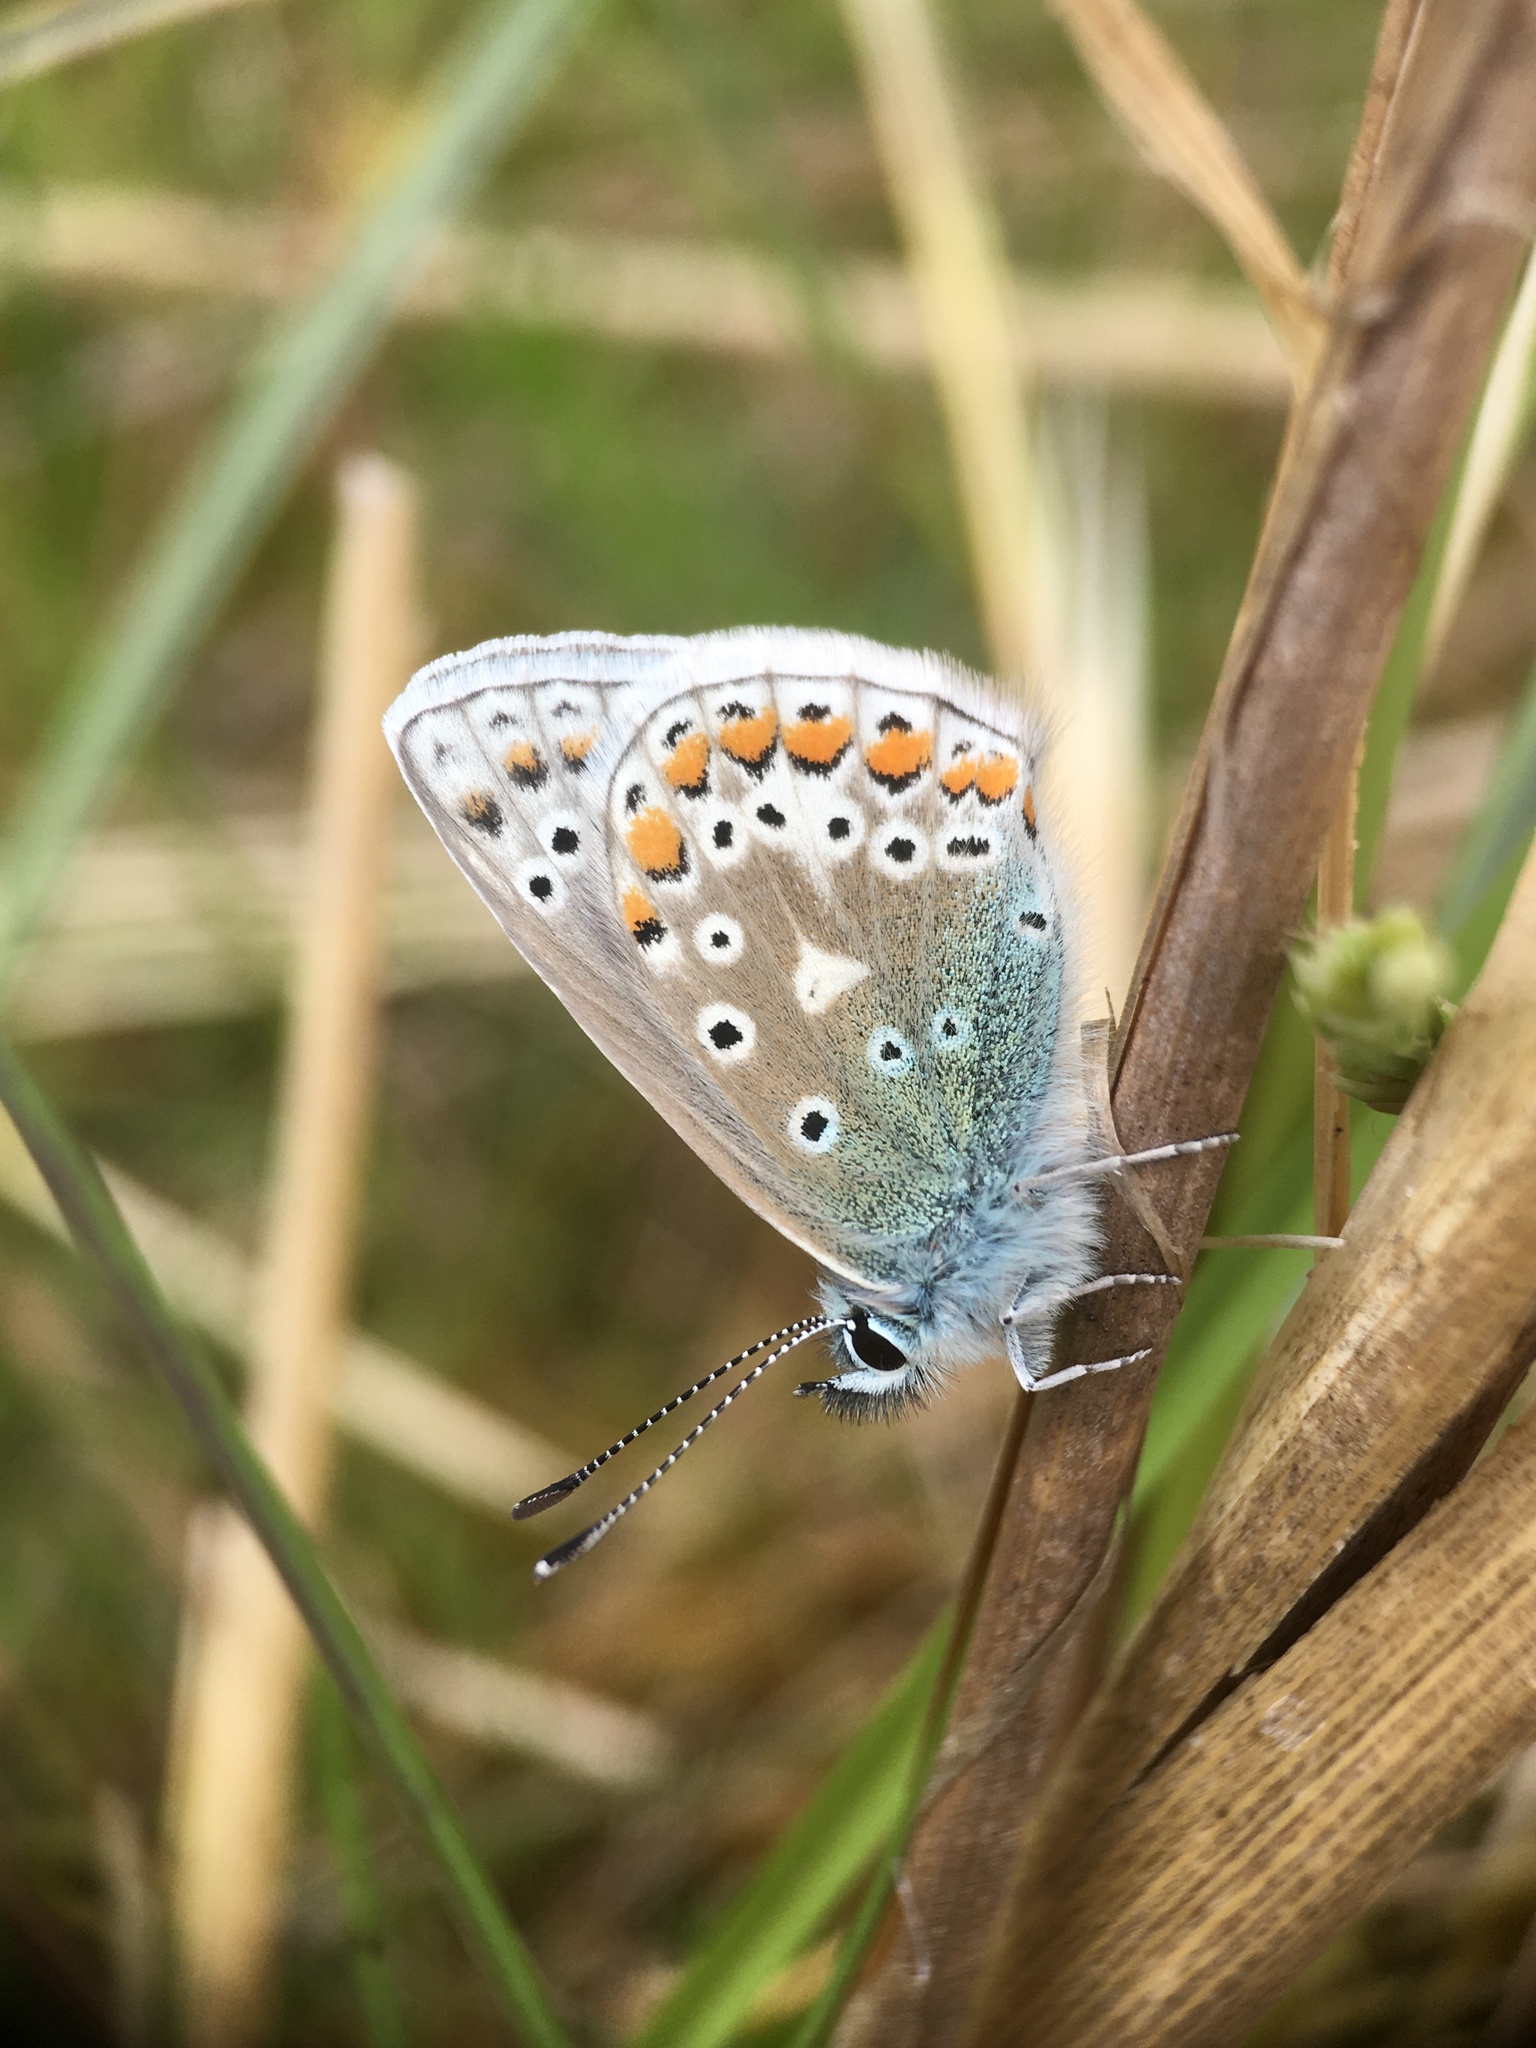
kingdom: Animalia
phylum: Arthropoda
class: Insecta
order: Lepidoptera
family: Lycaenidae
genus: Polyommatus
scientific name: Polyommatus icarus
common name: Common blue
